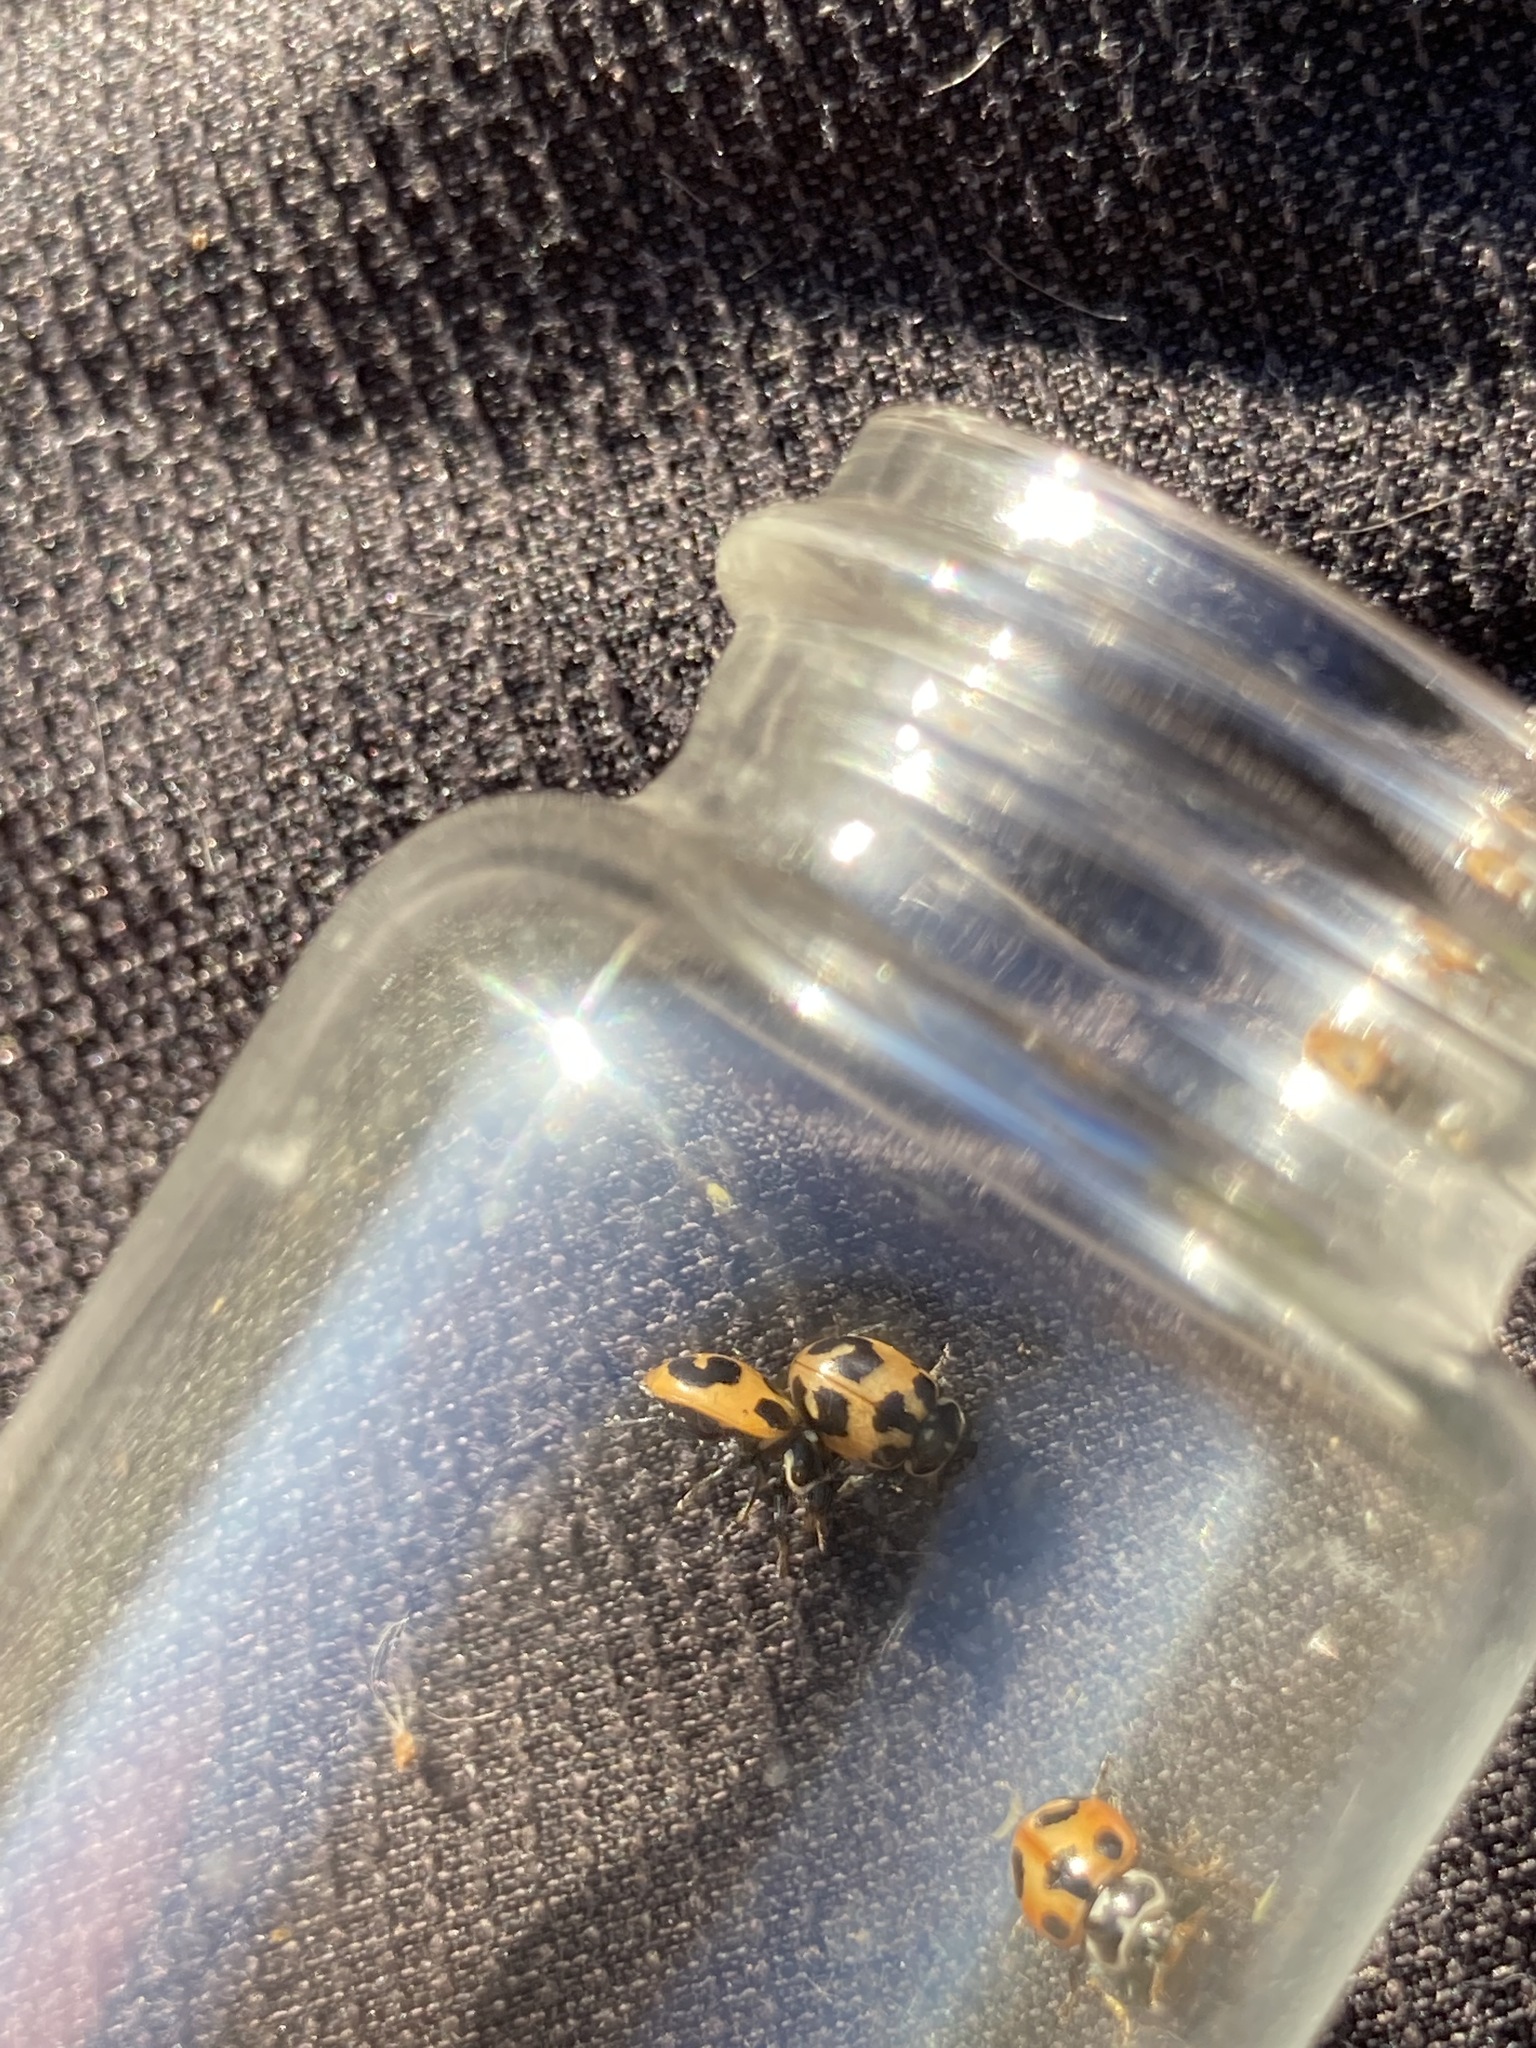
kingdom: Animalia
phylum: Arthropoda
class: Insecta
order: Coleoptera
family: Coccinellidae
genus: Hippodamia
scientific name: Hippodamia parenthesis
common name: Parenthesis lady beetle
